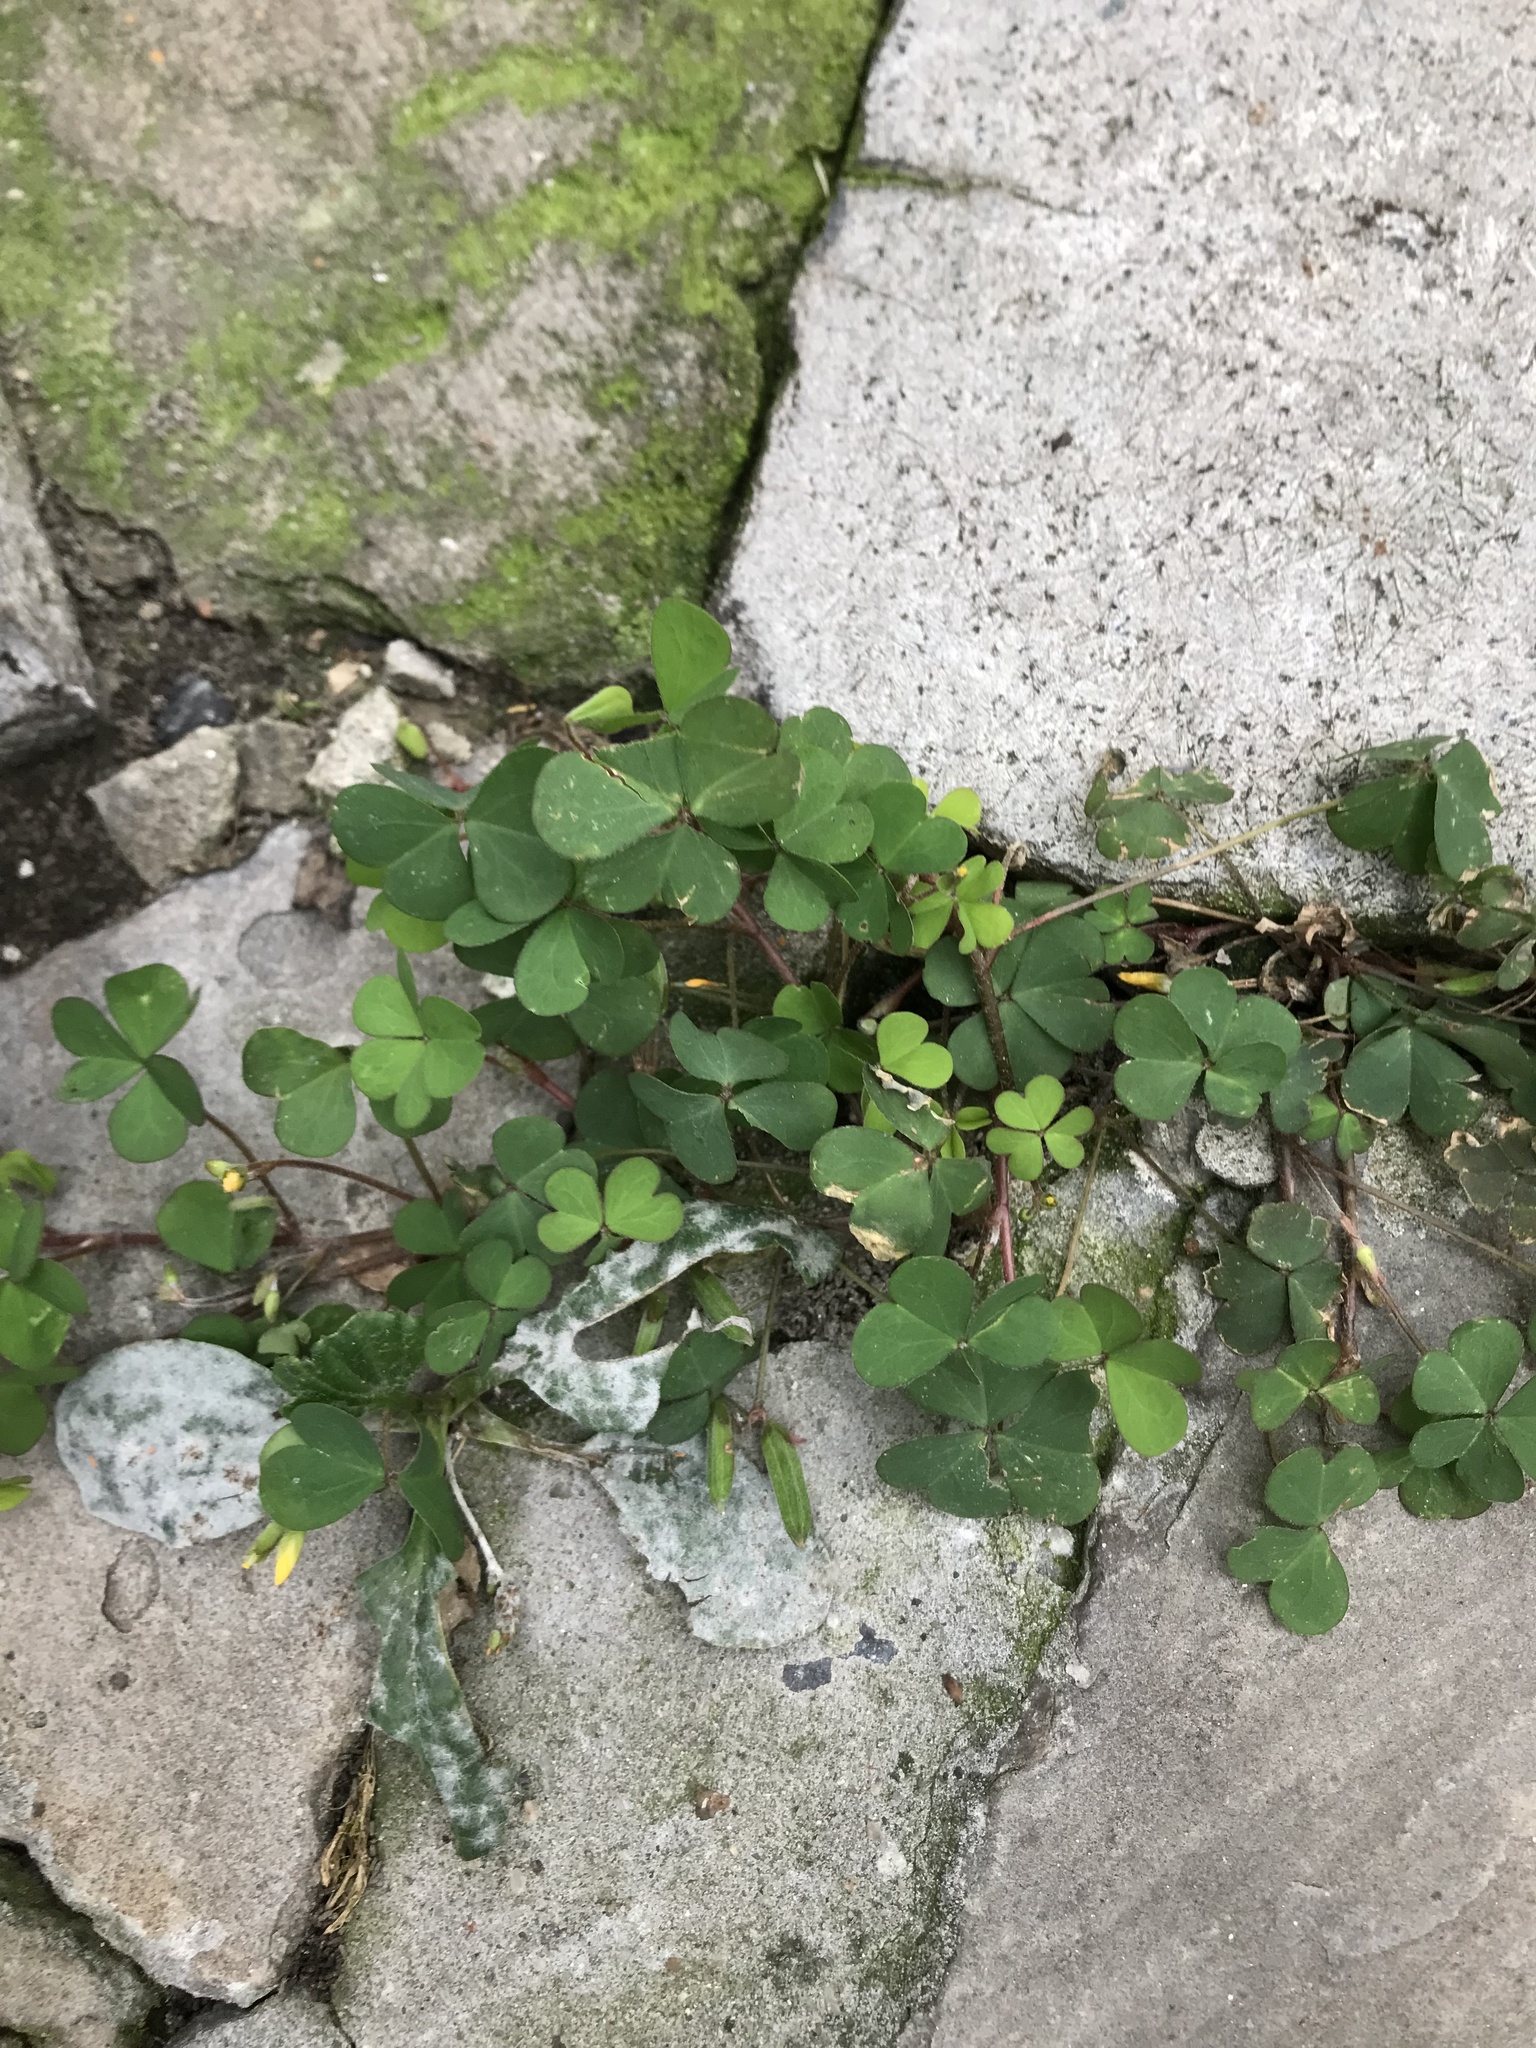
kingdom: Plantae
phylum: Tracheophyta
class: Magnoliopsida
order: Oxalidales
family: Oxalidaceae
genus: Oxalis
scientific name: Oxalis corniculata
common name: Procumbent yellow-sorrel
